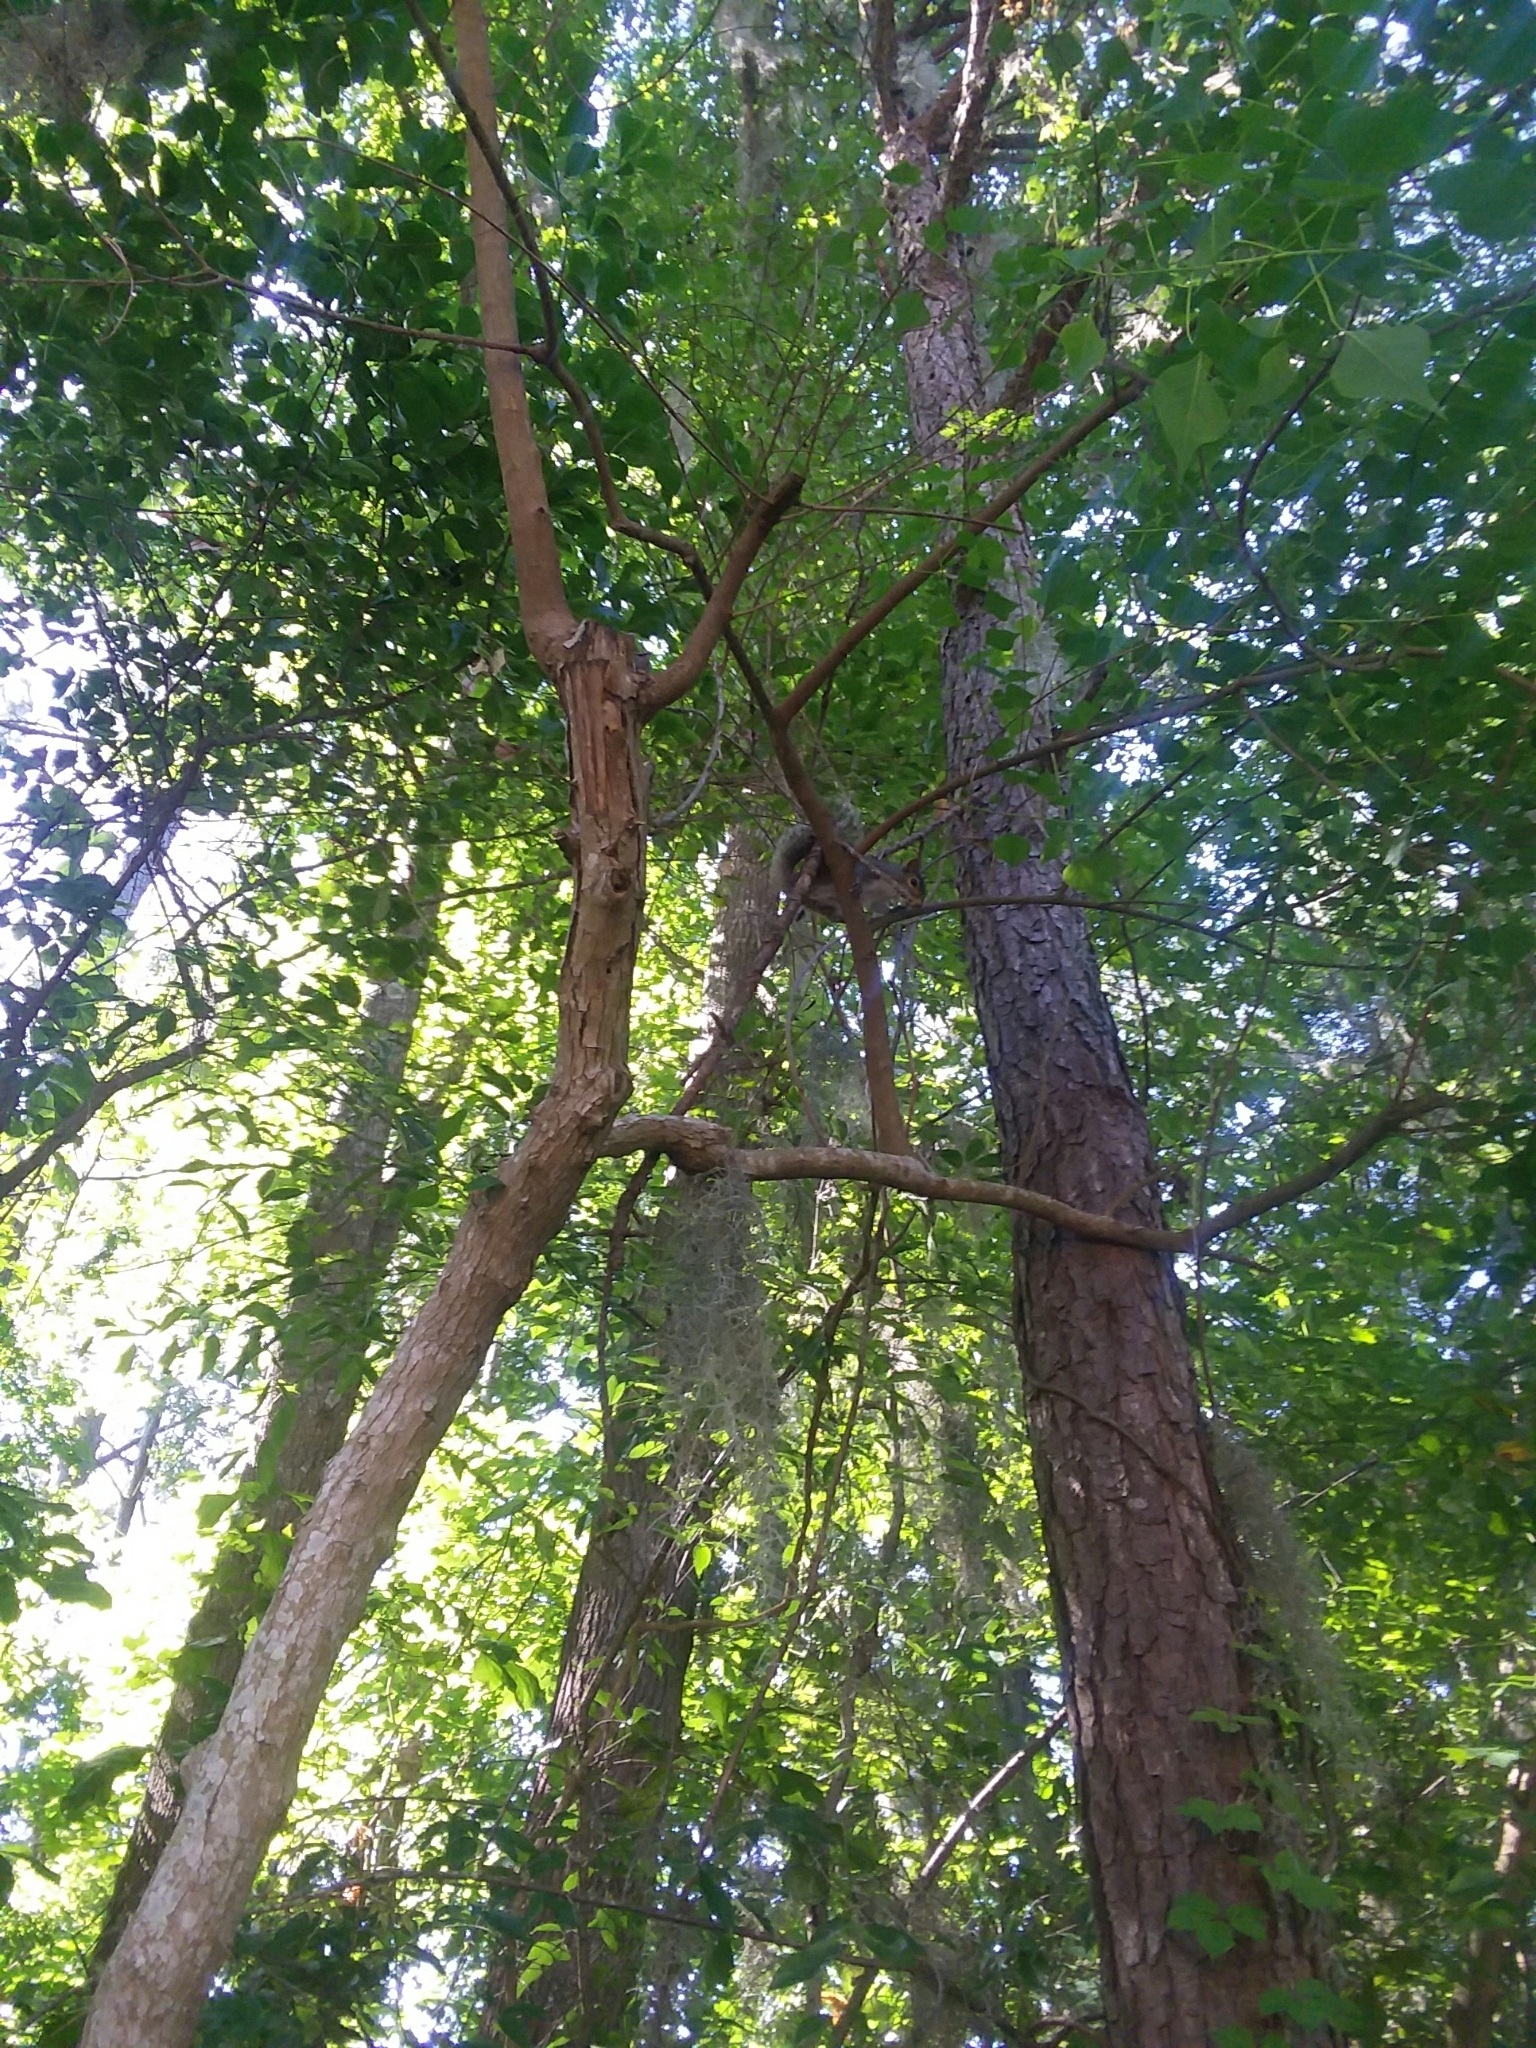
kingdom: Animalia
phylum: Chordata
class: Mammalia
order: Rodentia
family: Sciuridae
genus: Sciurus
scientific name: Sciurus carolinensis
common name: Eastern gray squirrel
